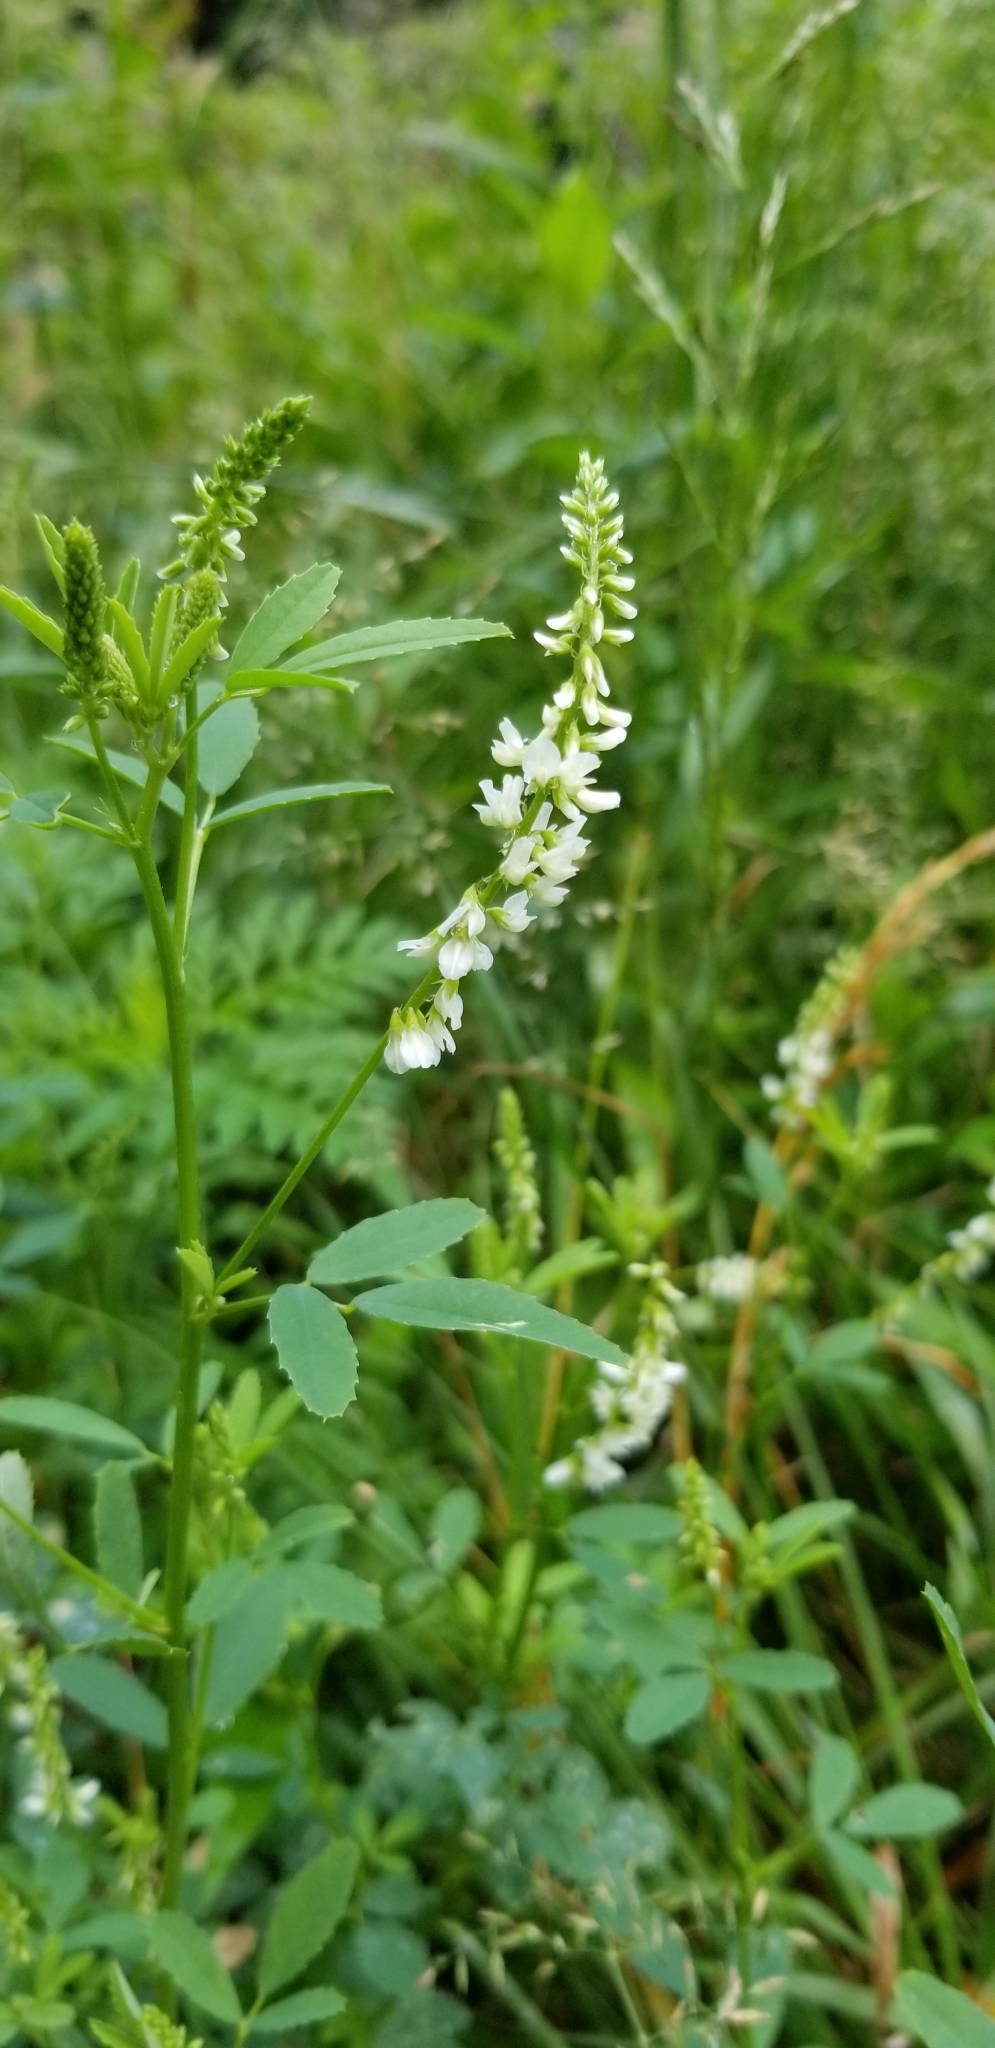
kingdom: Plantae
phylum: Tracheophyta
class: Magnoliopsida
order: Fabales
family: Fabaceae
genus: Melilotus
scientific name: Melilotus albus
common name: White melilot
